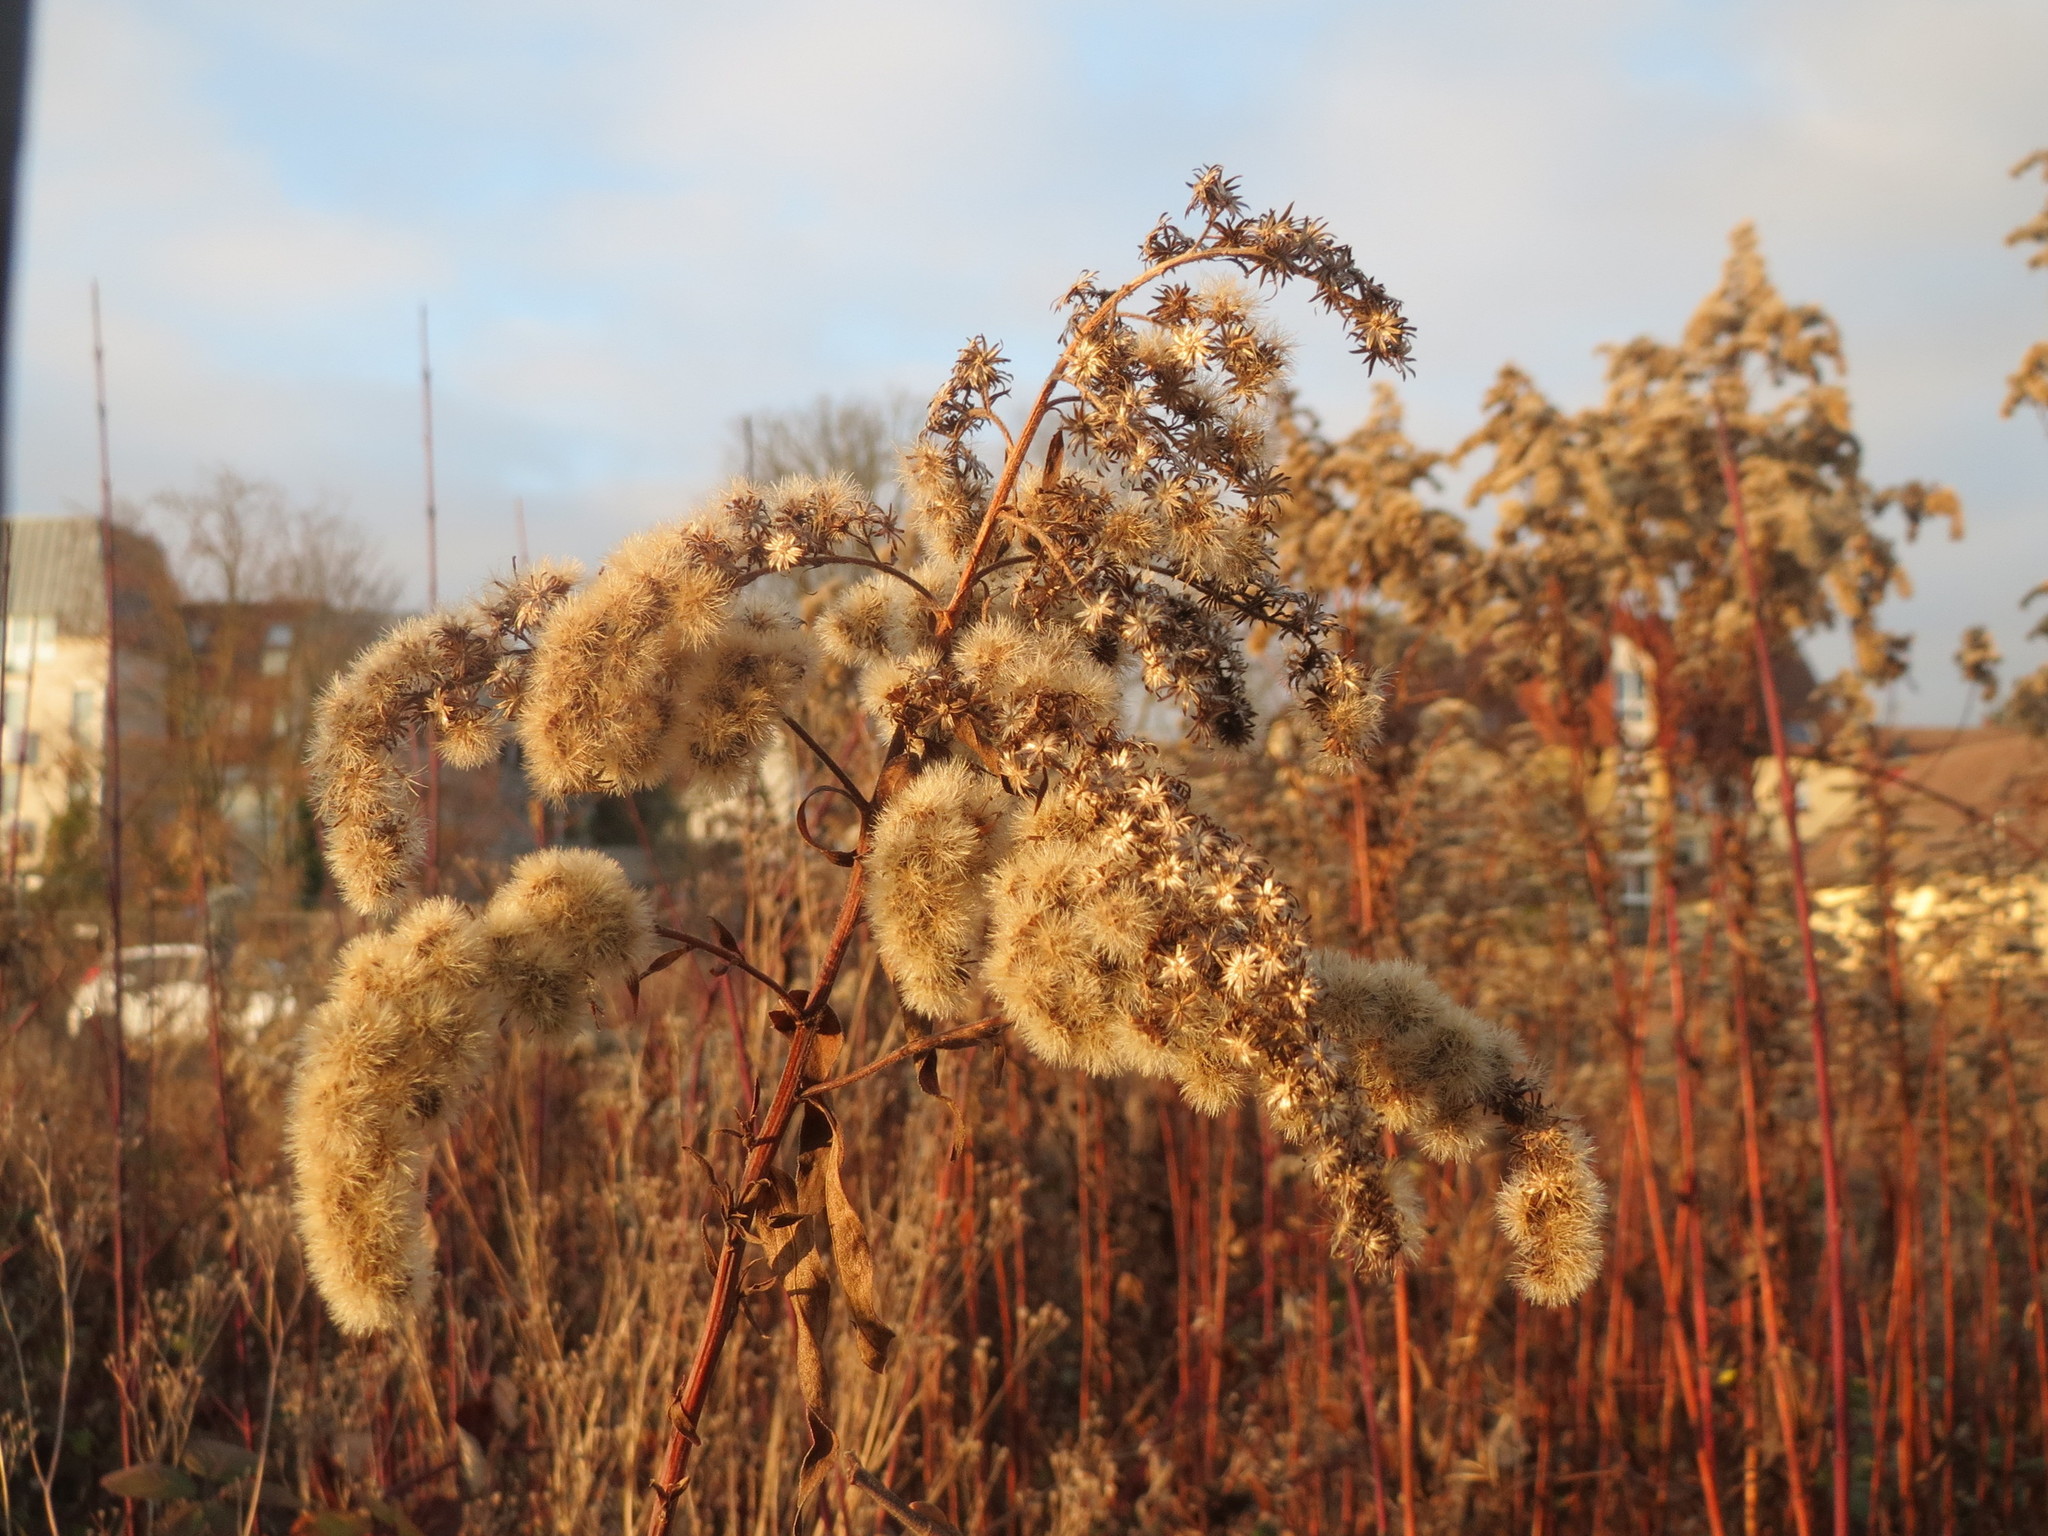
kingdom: Plantae
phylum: Tracheophyta
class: Magnoliopsida
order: Asterales
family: Asteraceae
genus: Solidago
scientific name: Solidago canadensis
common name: Canada goldenrod
